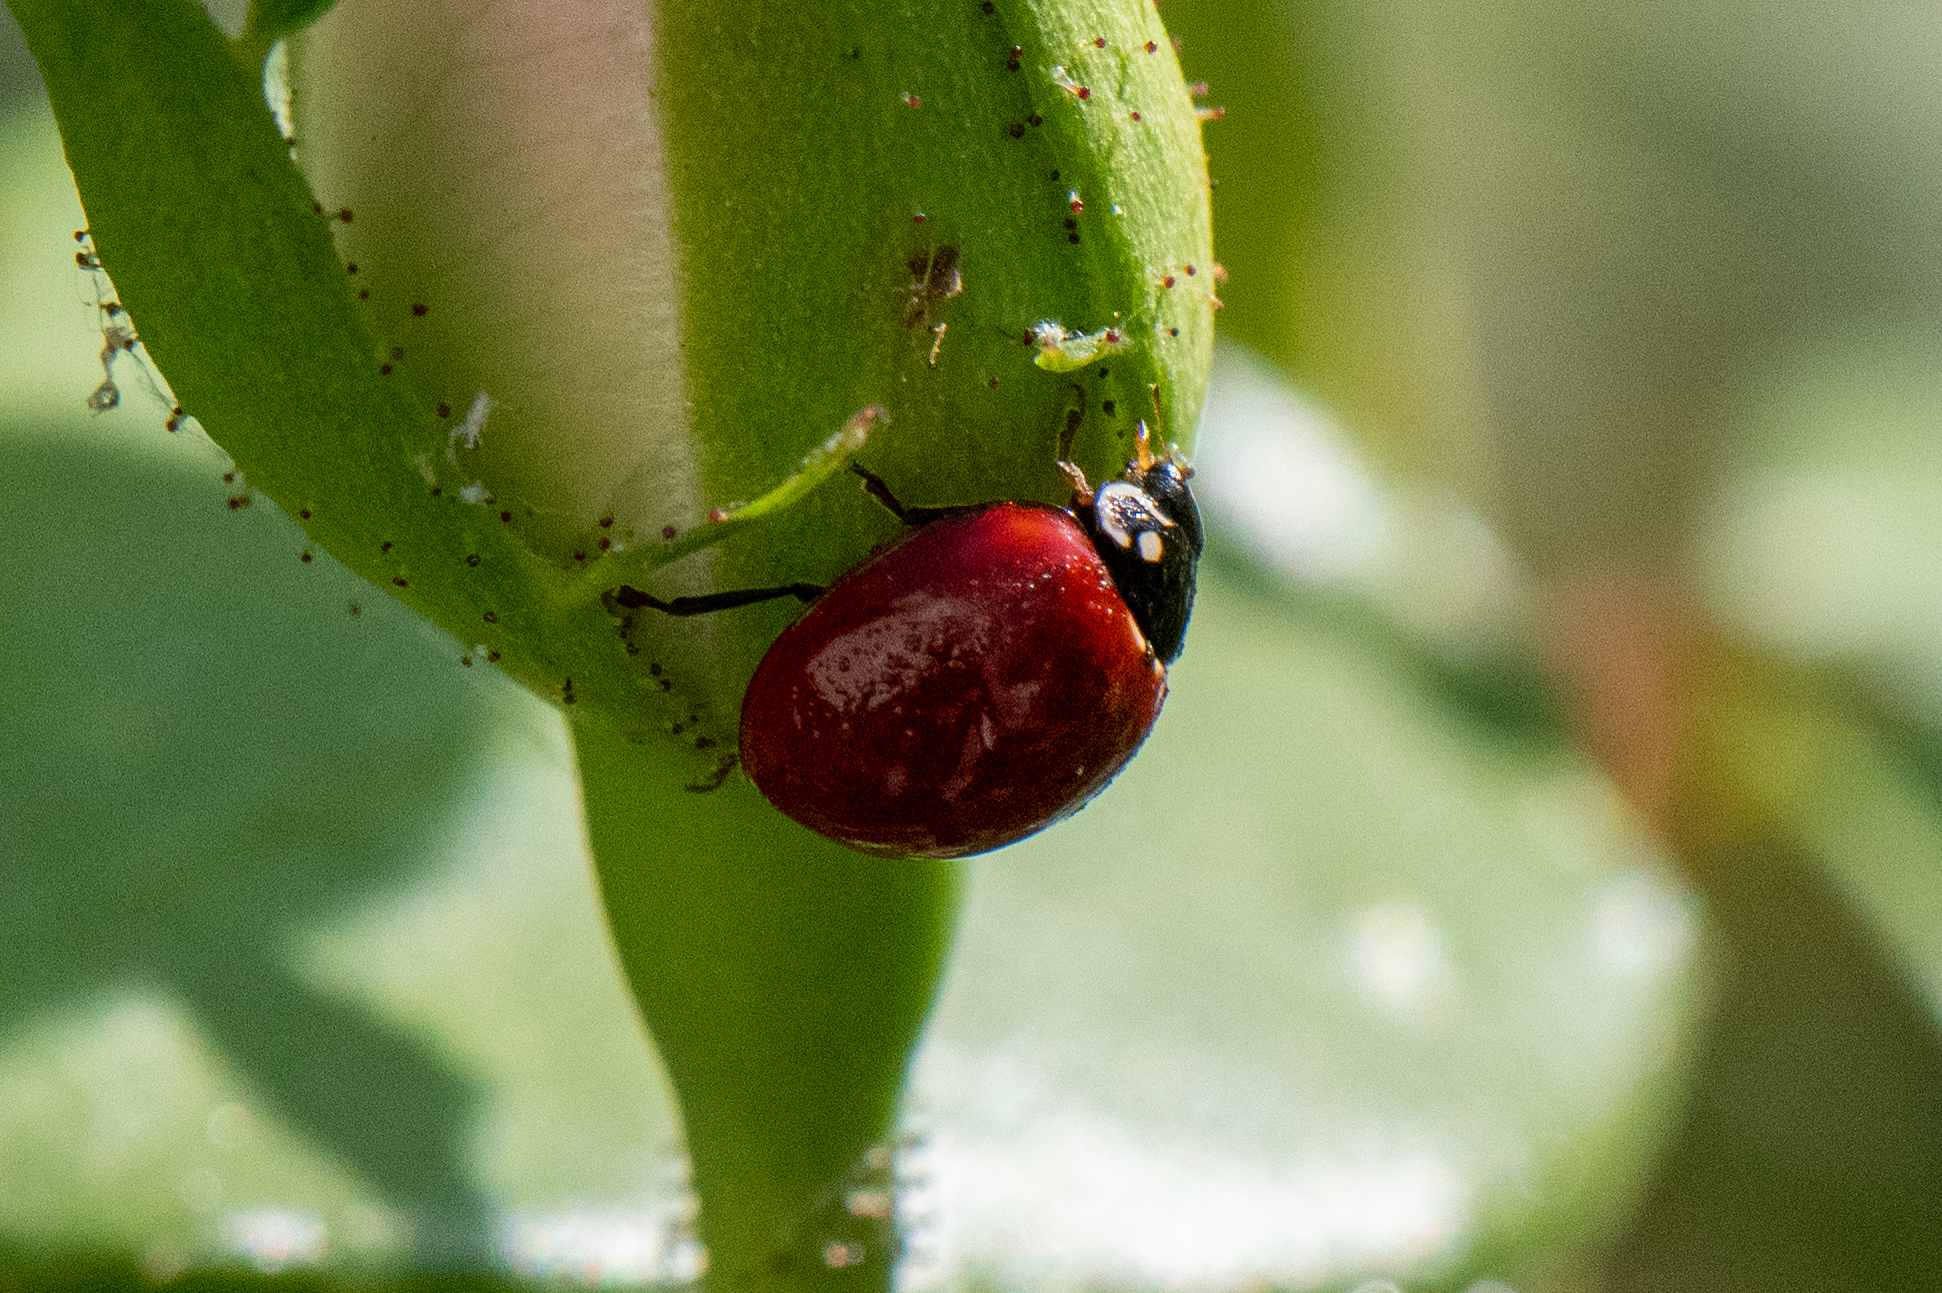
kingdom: Animalia
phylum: Arthropoda
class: Insecta
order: Coleoptera
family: Coccinellidae
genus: Cycloneda
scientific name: Cycloneda sanguinea
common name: Ladybird beetle
